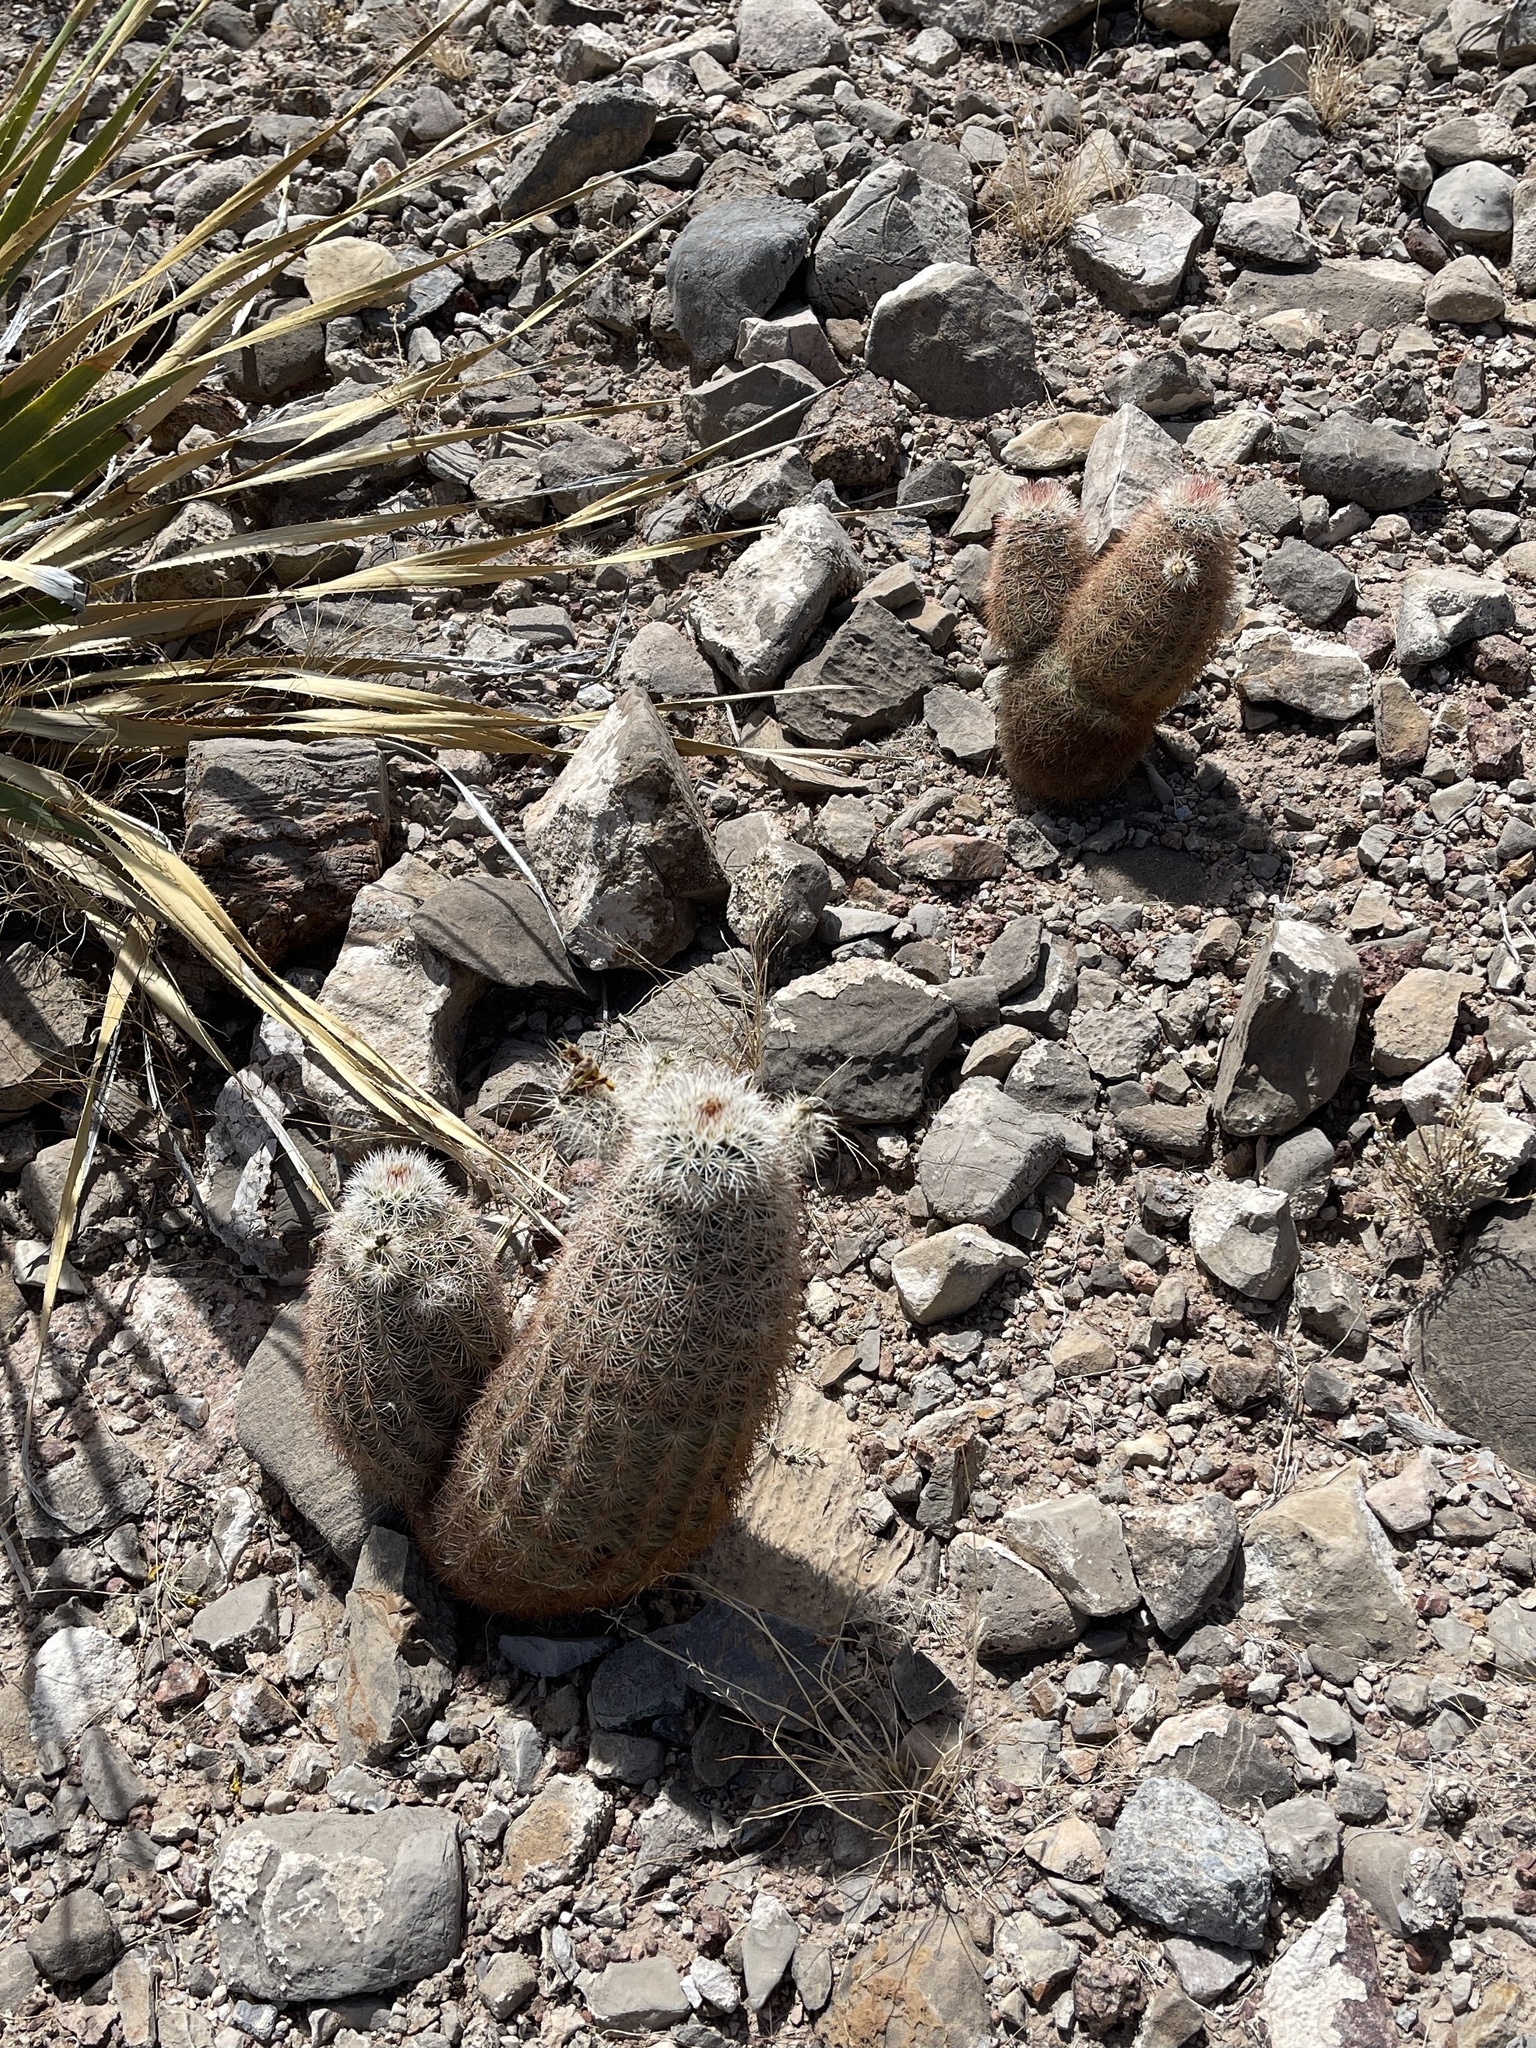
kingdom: Plantae
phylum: Tracheophyta
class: Magnoliopsida
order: Caryophyllales
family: Cactaceae
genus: Echinocereus
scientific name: Echinocereus dasyacanthus
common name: Spiny hedgehog cactus
